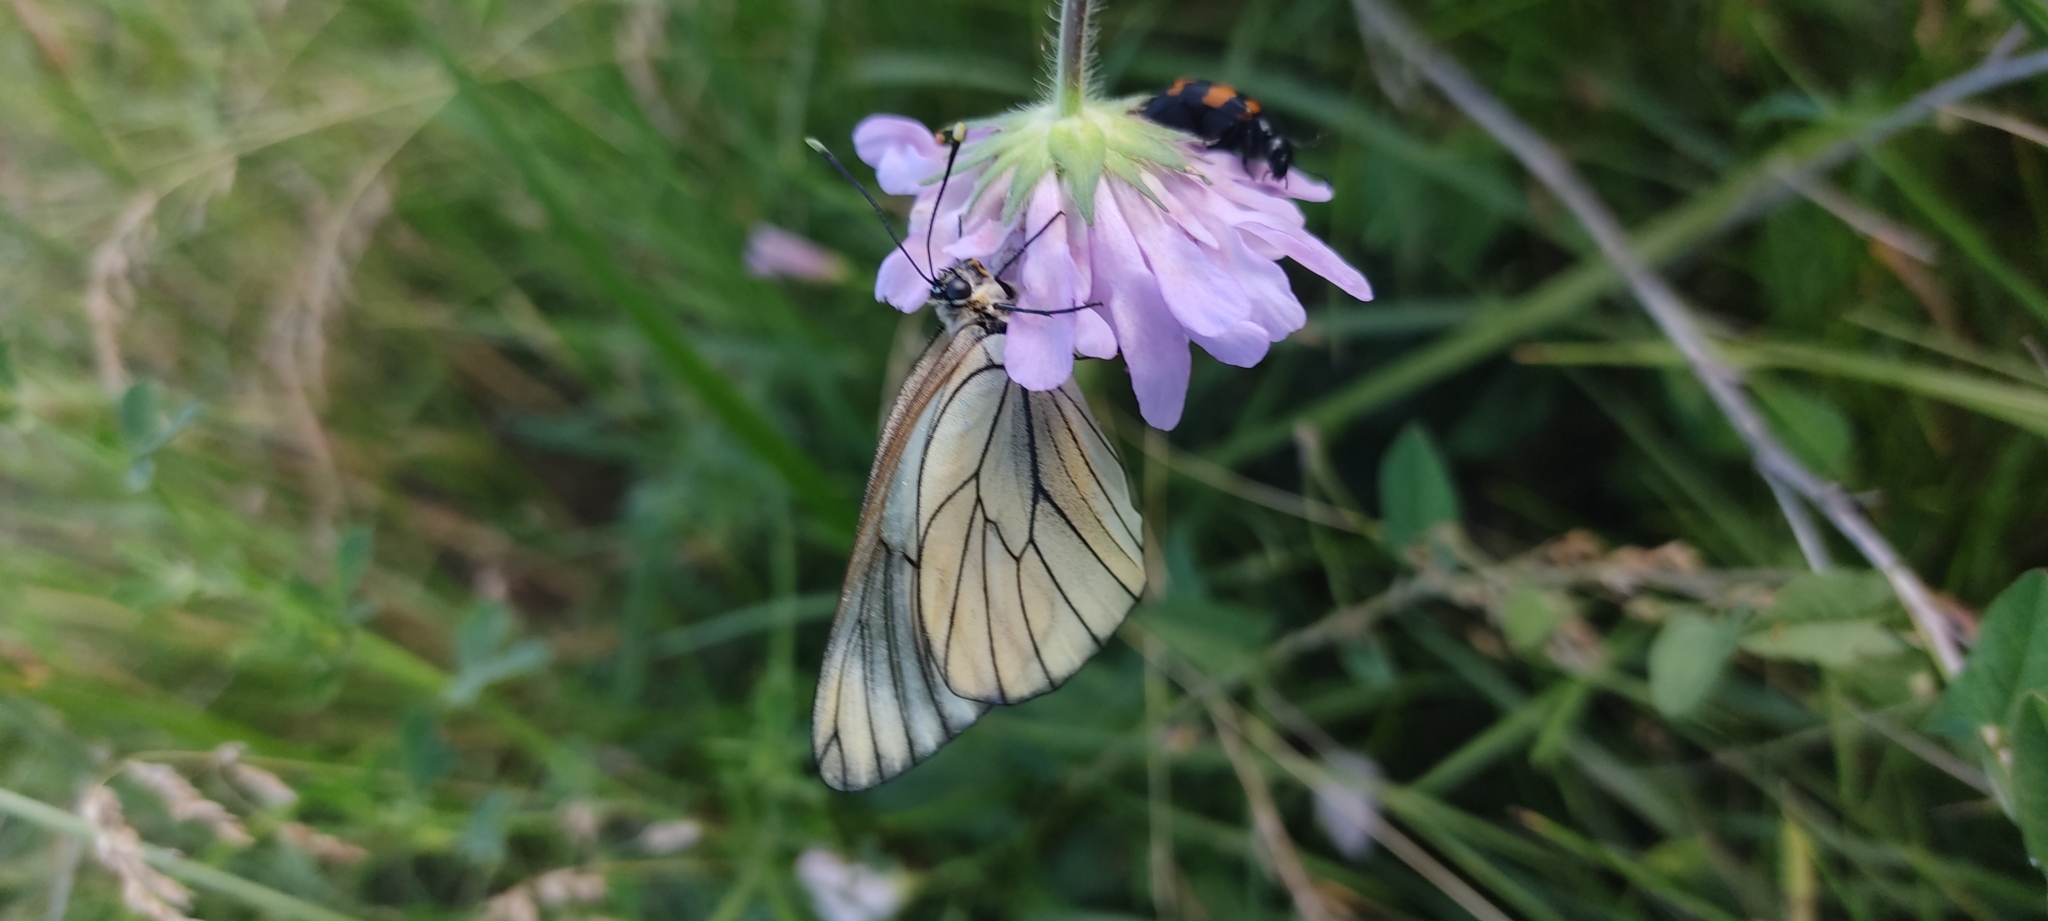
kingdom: Animalia
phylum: Arthropoda
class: Insecta
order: Lepidoptera
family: Pieridae
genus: Aporia
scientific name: Aporia crataegi
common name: Black-veined white
